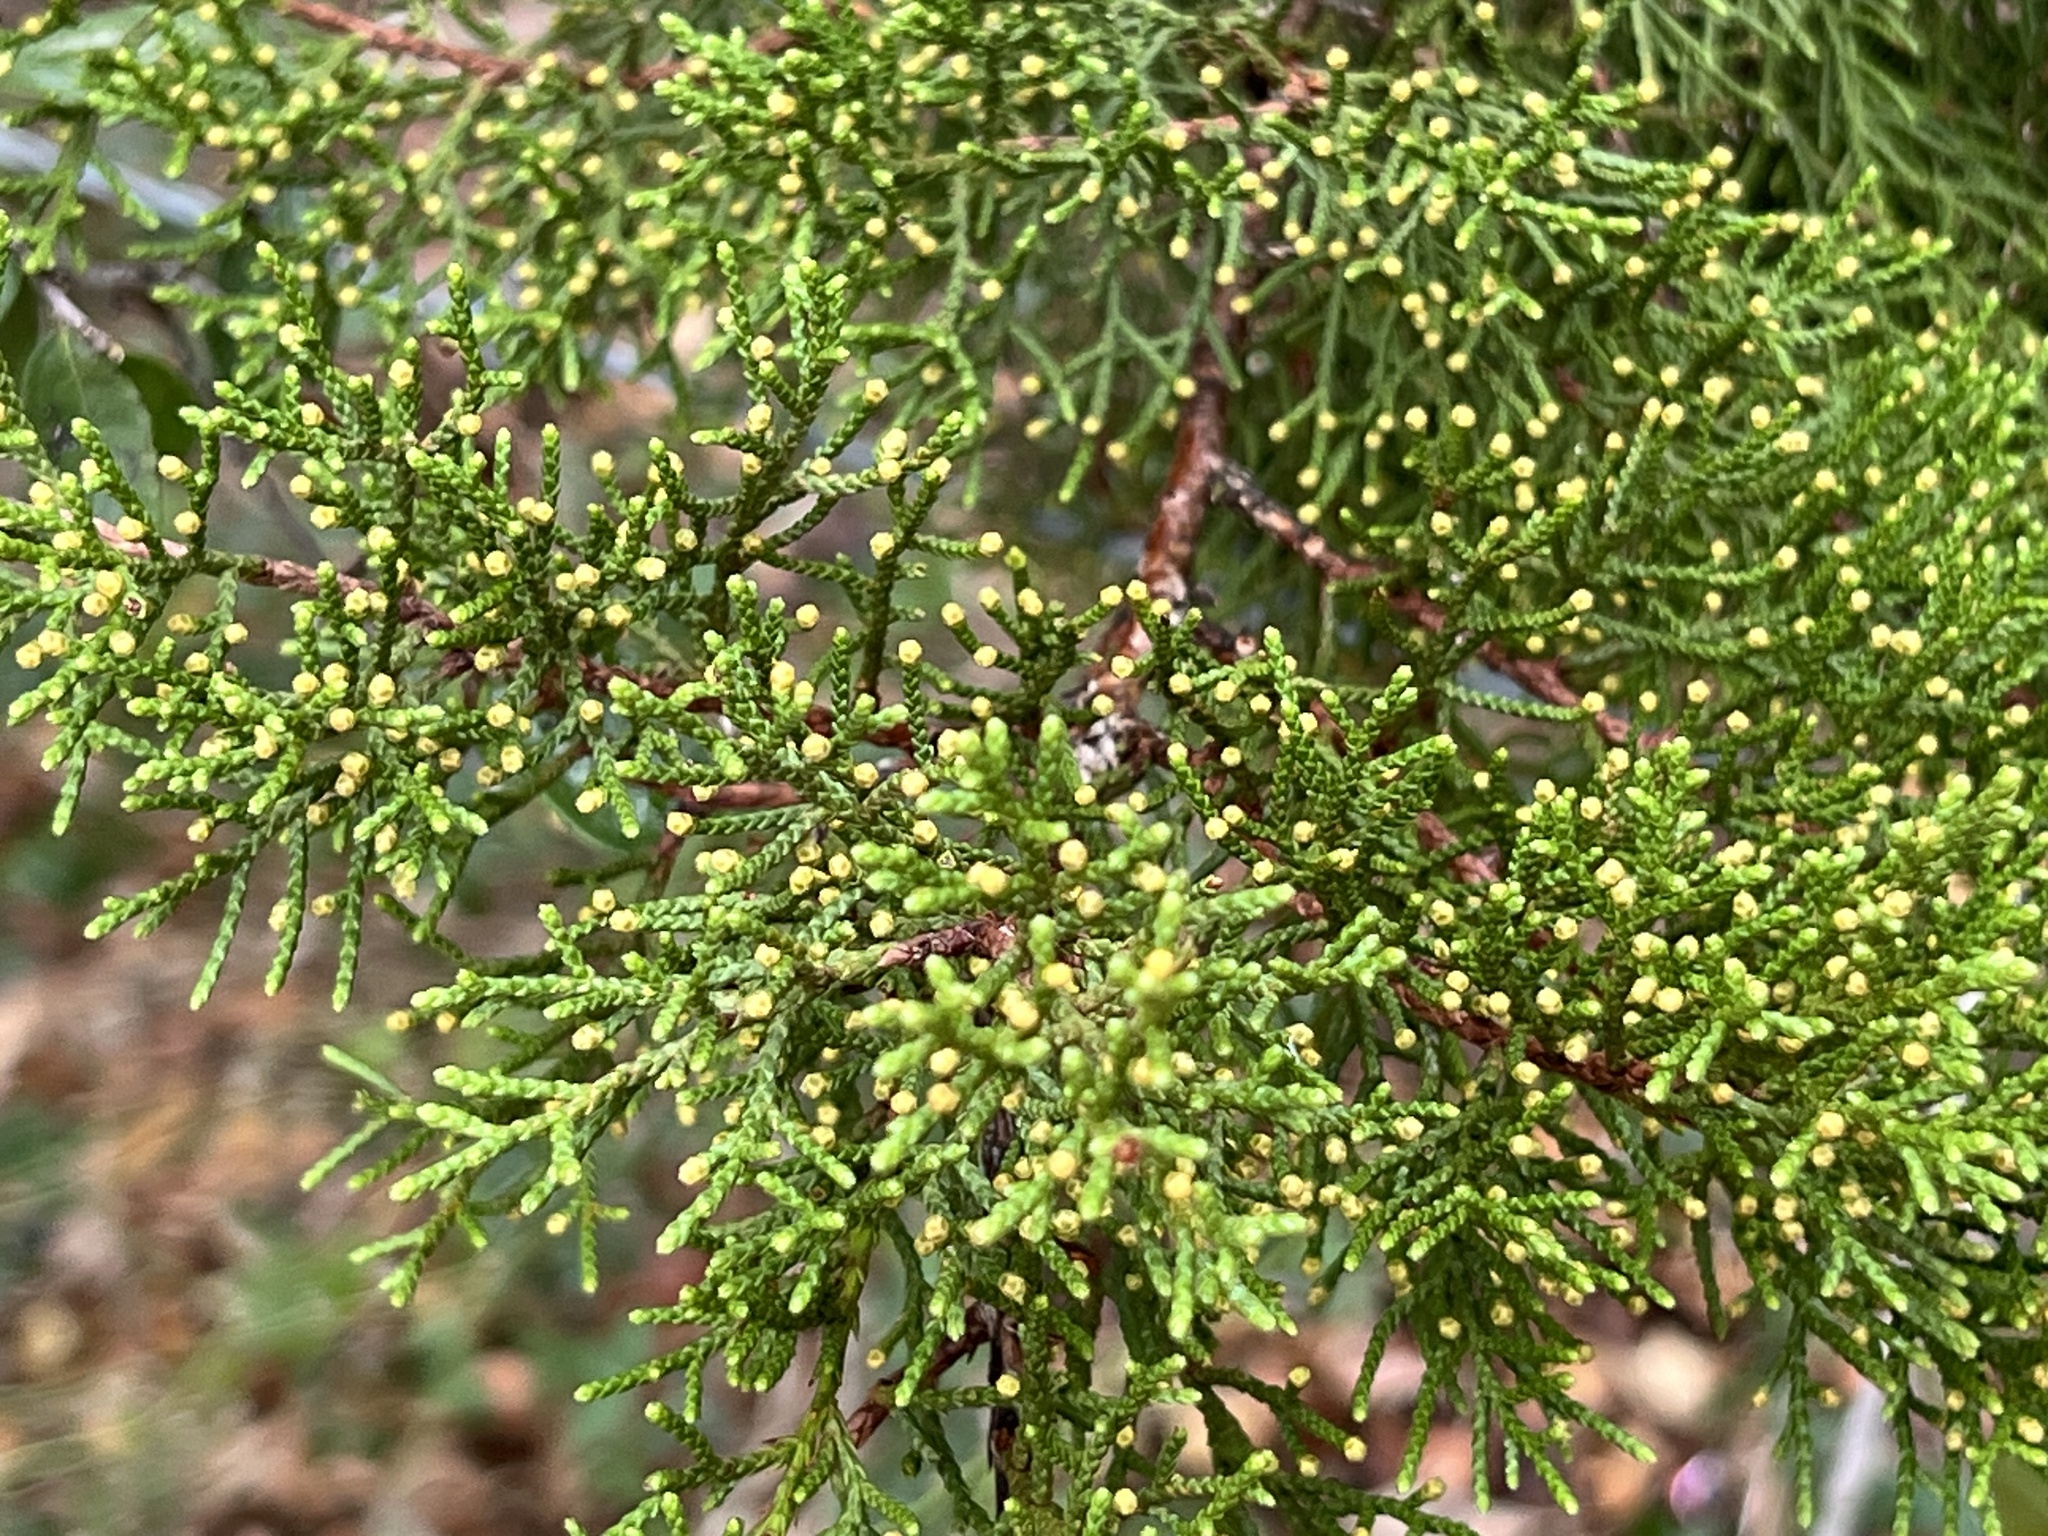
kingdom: Plantae
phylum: Tracheophyta
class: Pinopsida
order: Pinales
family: Cupressaceae
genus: Juniperus
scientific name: Juniperus ashei
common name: Mexican juniper
